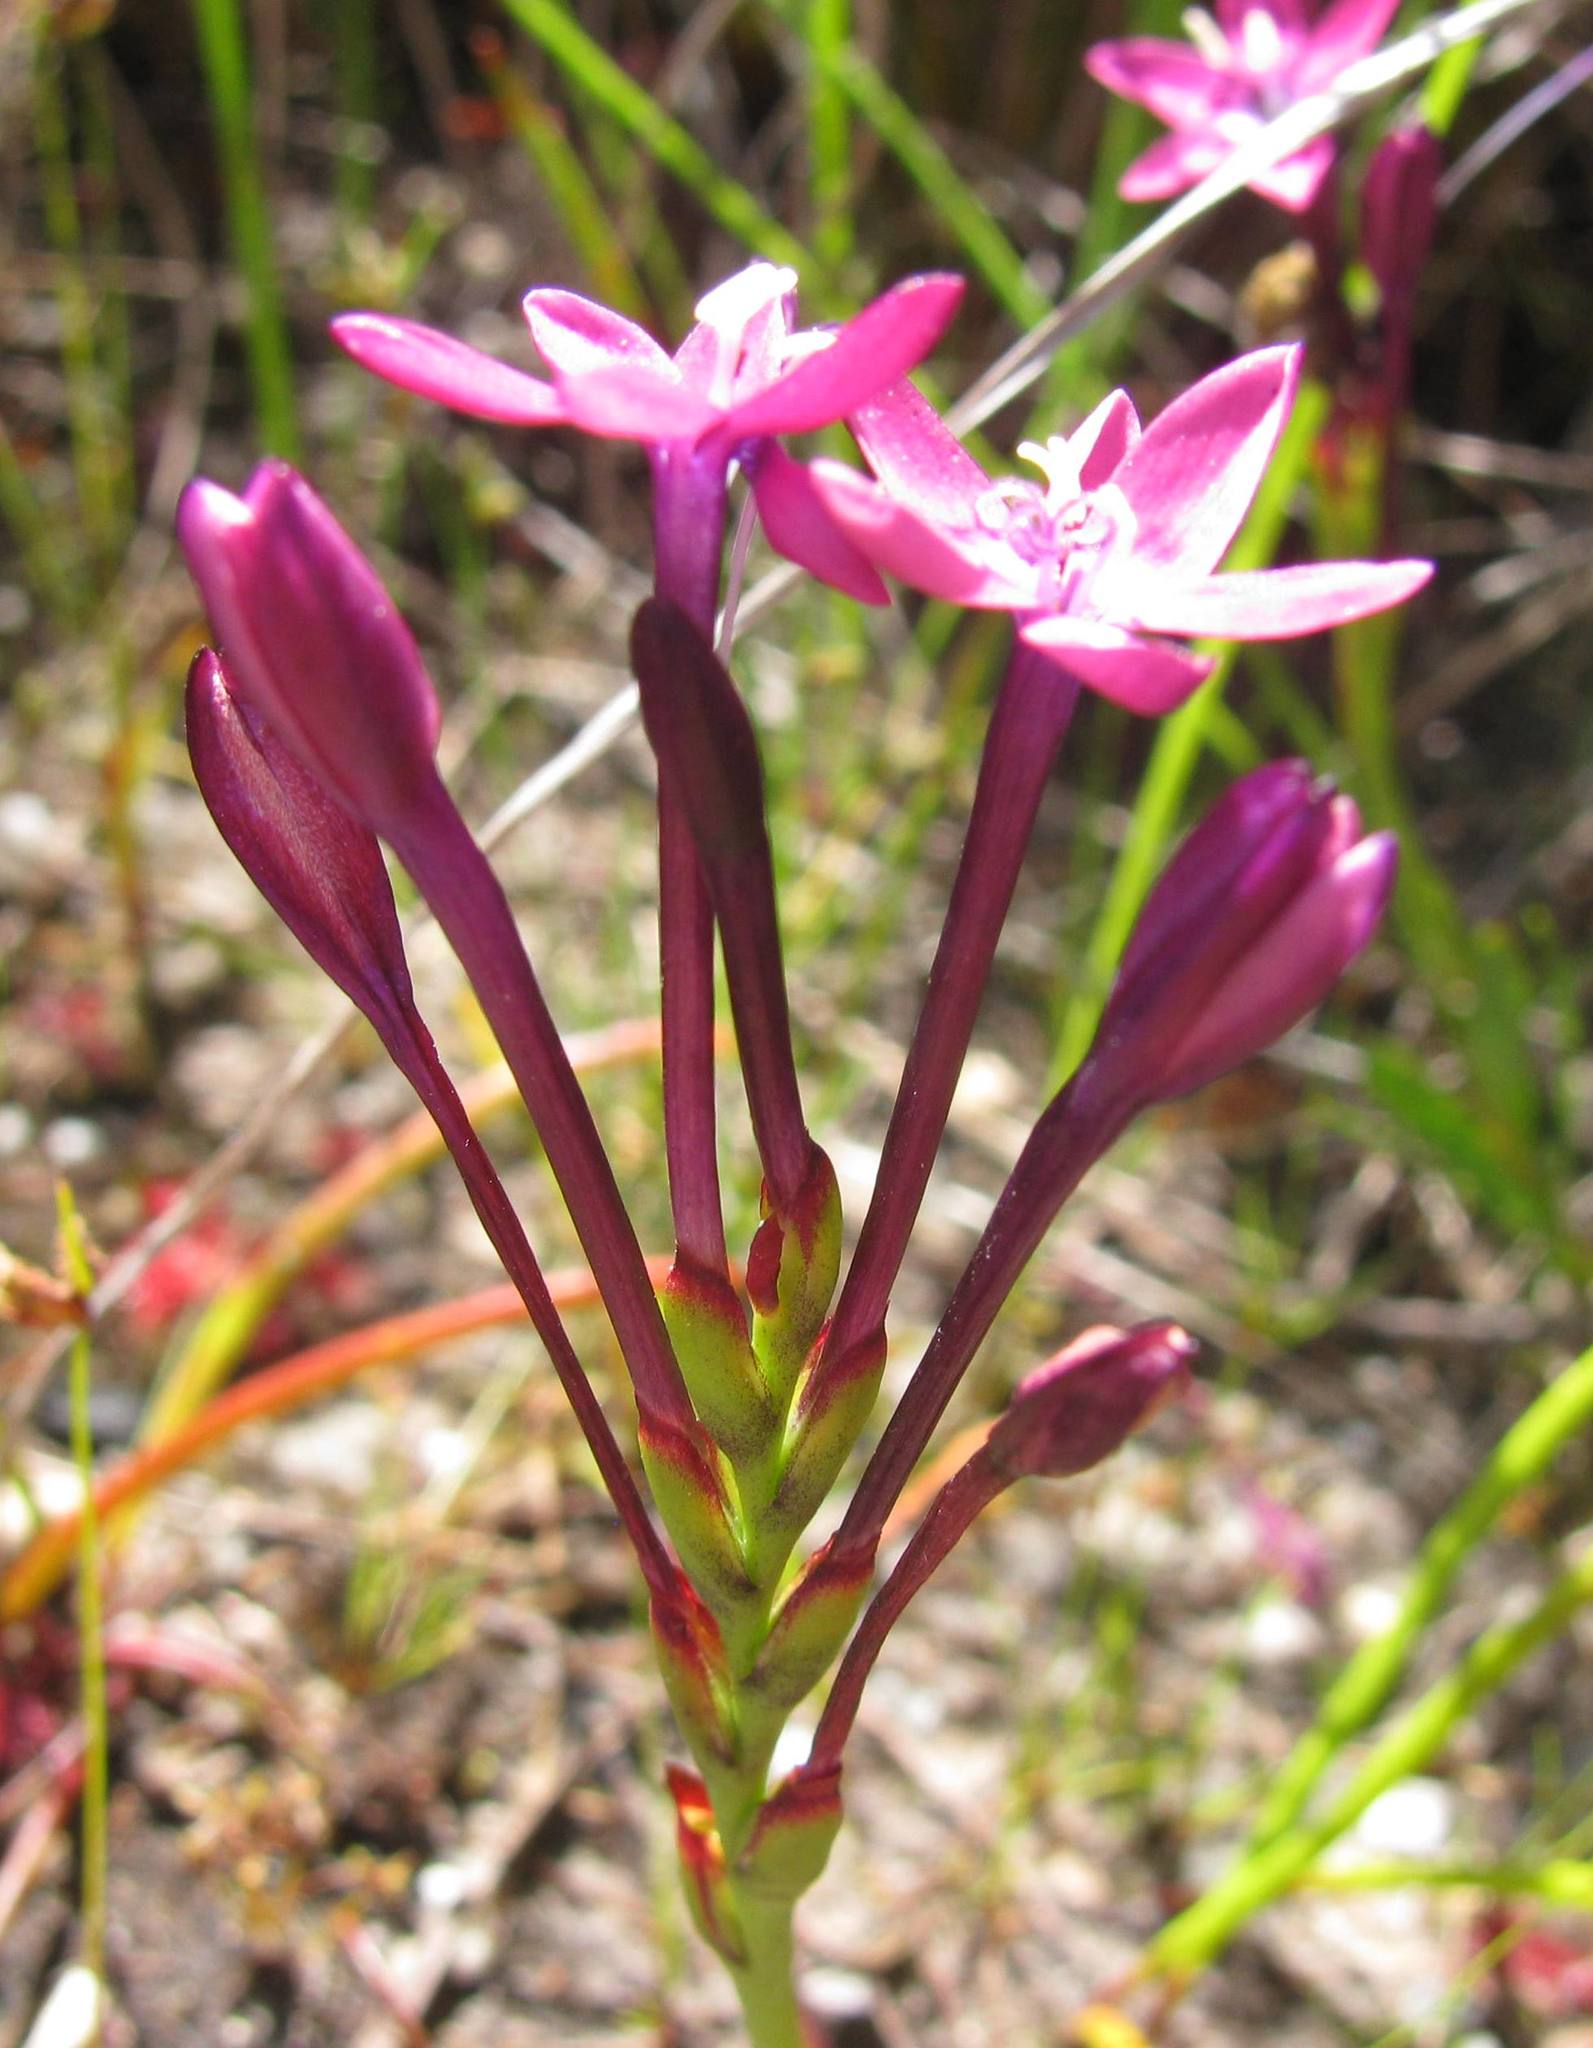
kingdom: Plantae
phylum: Tracheophyta
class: Liliopsida
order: Asparagales
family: Iridaceae
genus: Thereianthus
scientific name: Thereianthus minutus
